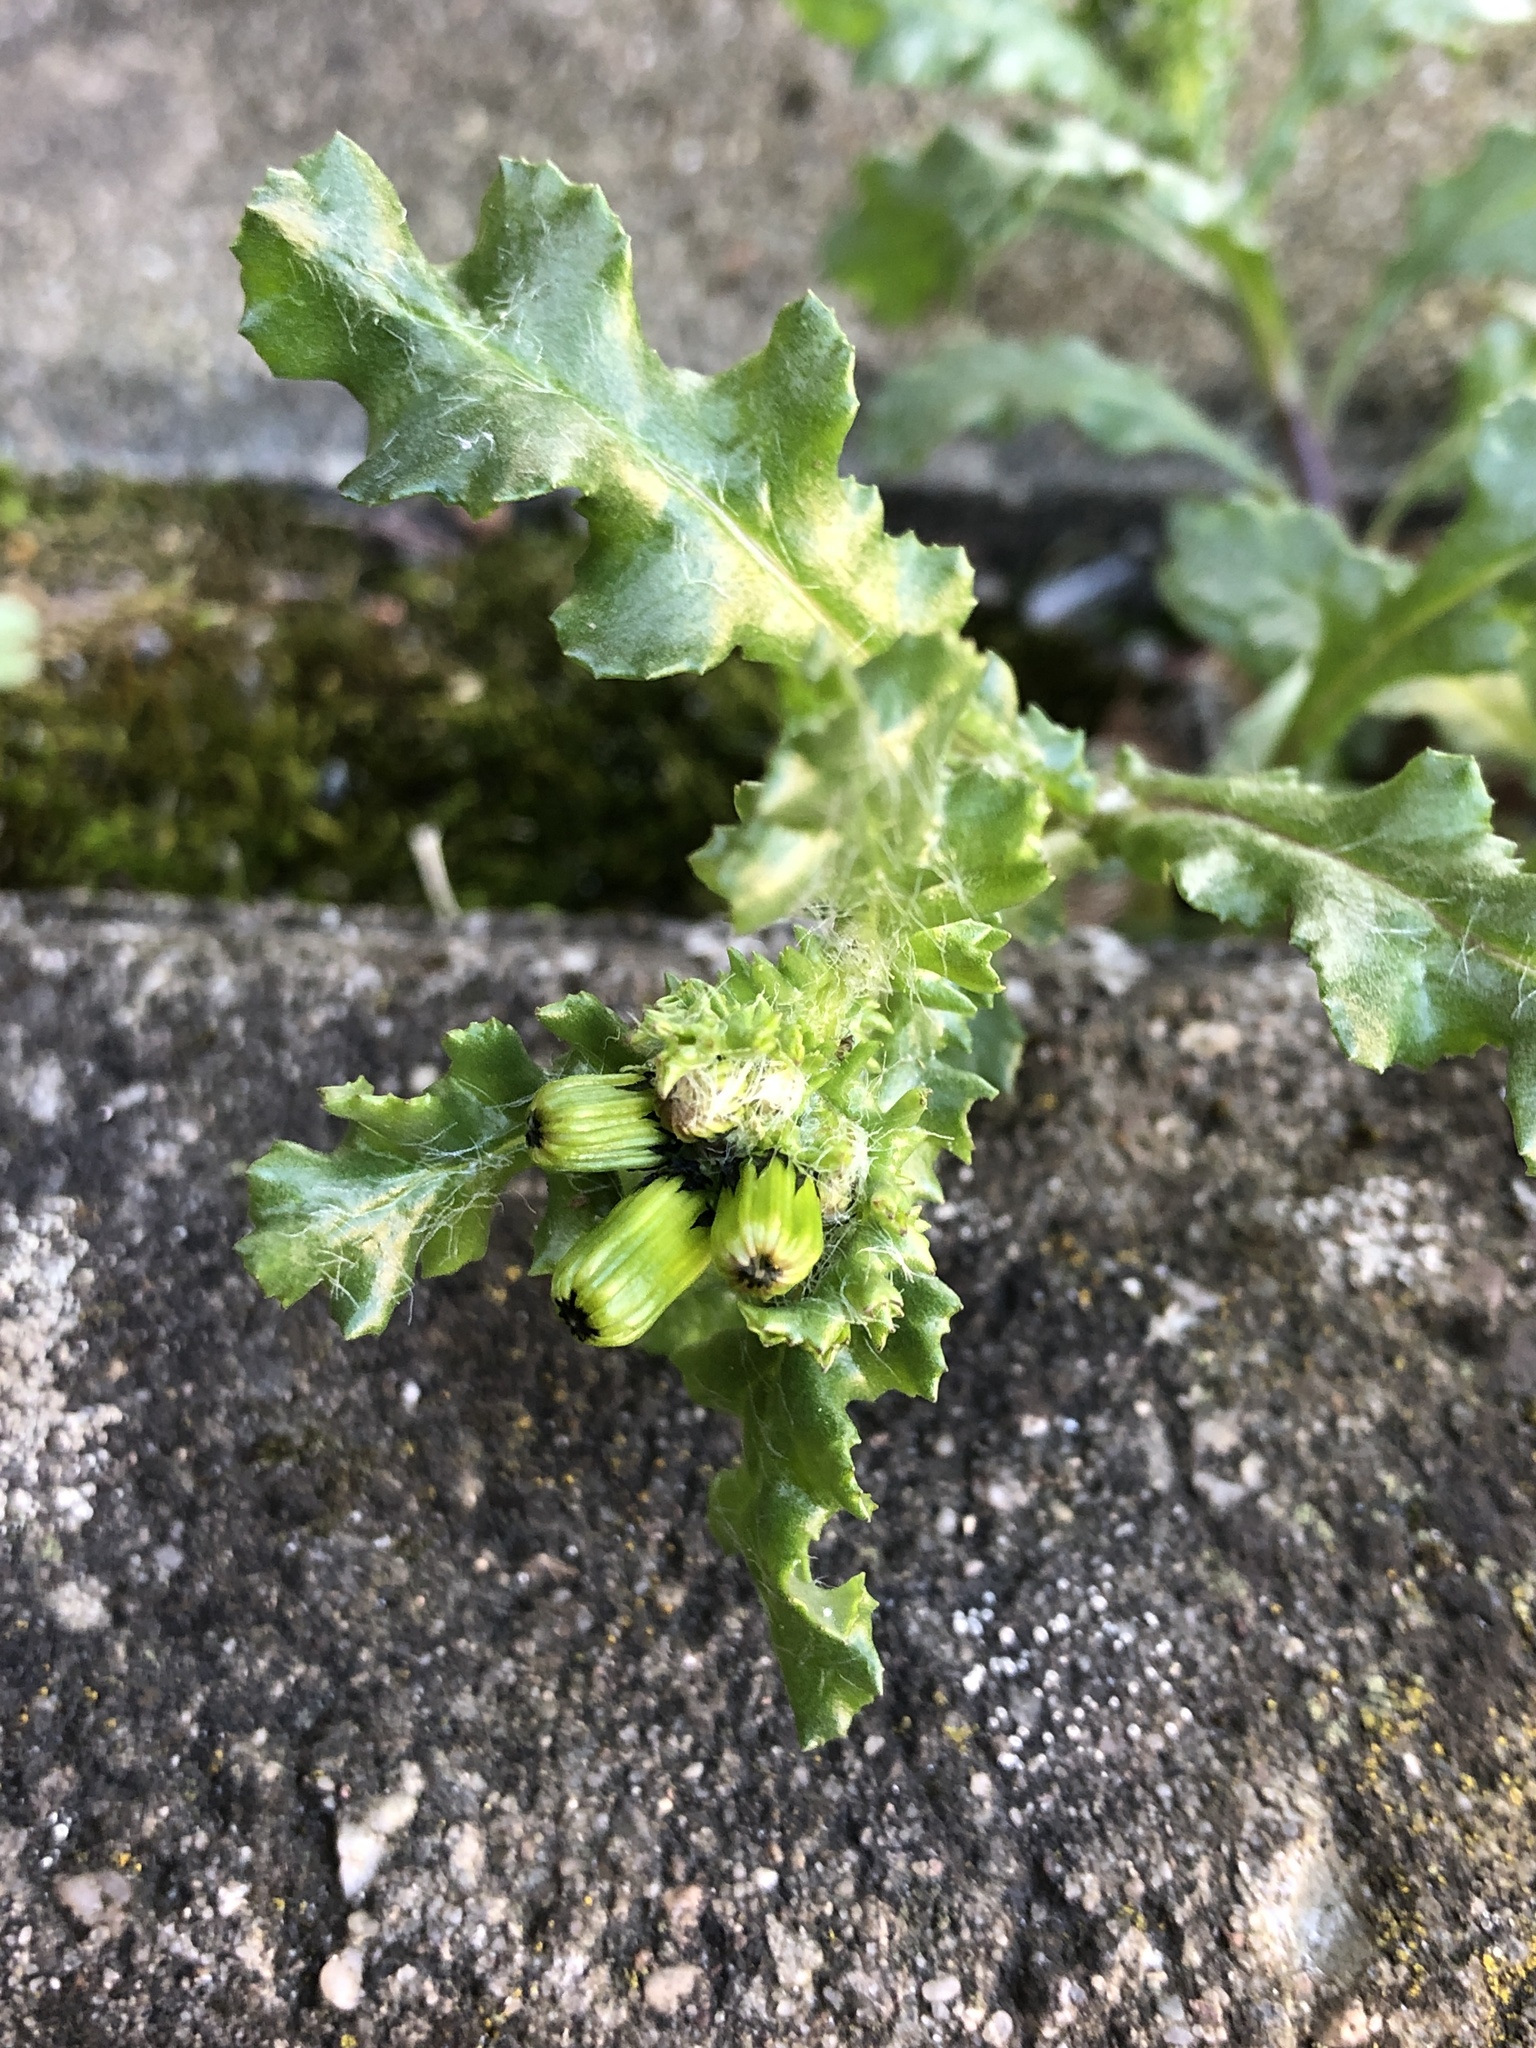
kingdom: Plantae
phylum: Tracheophyta
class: Magnoliopsida
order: Asterales
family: Asteraceae
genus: Senecio
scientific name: Senecio vulgaris
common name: Old-man-in-the-spring
